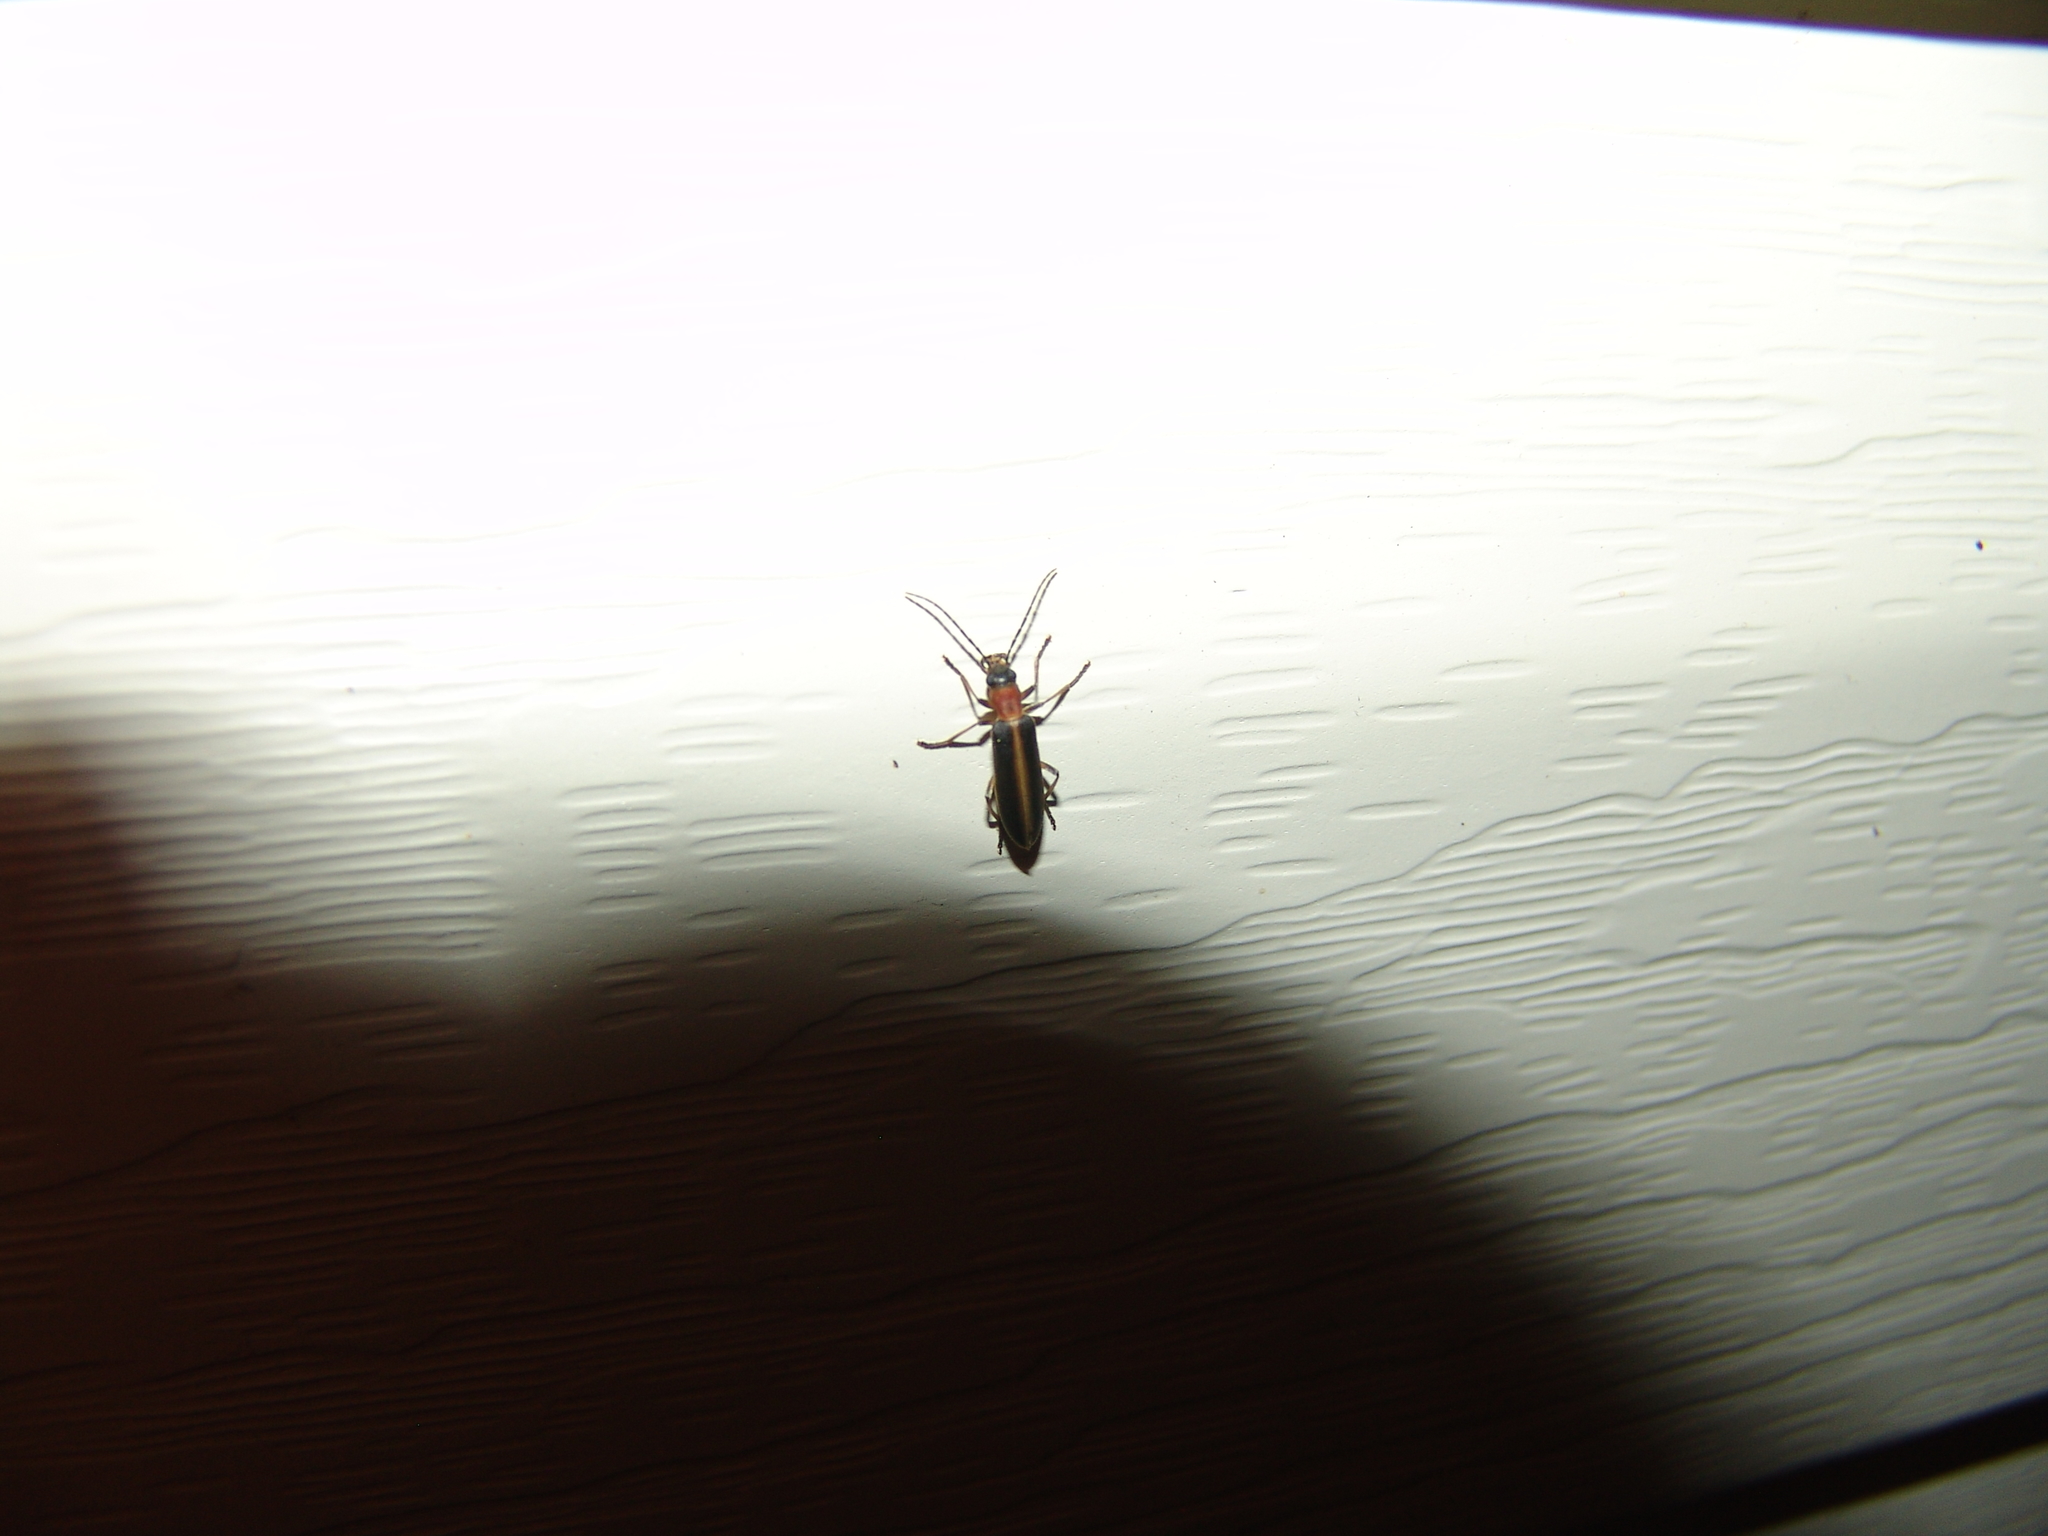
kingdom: Animalia
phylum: Arthropoda
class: Insecta
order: Coleoptera
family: Oedemeridae
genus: Oxycopis
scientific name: Oxycopis mimetica
